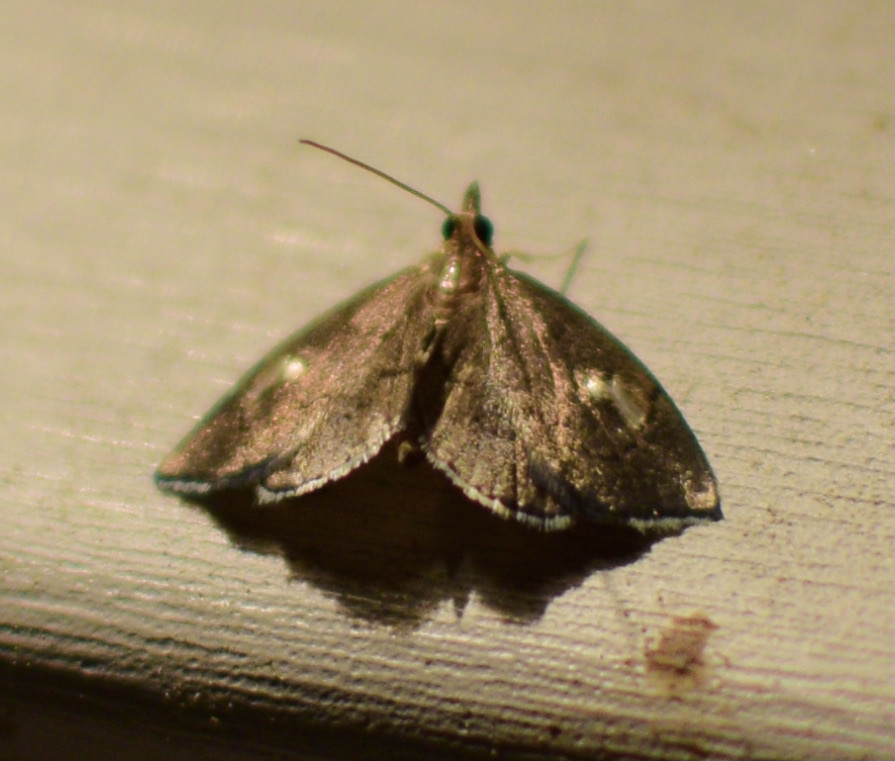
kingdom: Animalia
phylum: Arthropoda
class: Insecta
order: Lepidoptera
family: Crambidae
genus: Perispasta
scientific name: Perispasta caeculalis
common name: Titian peale's moth
